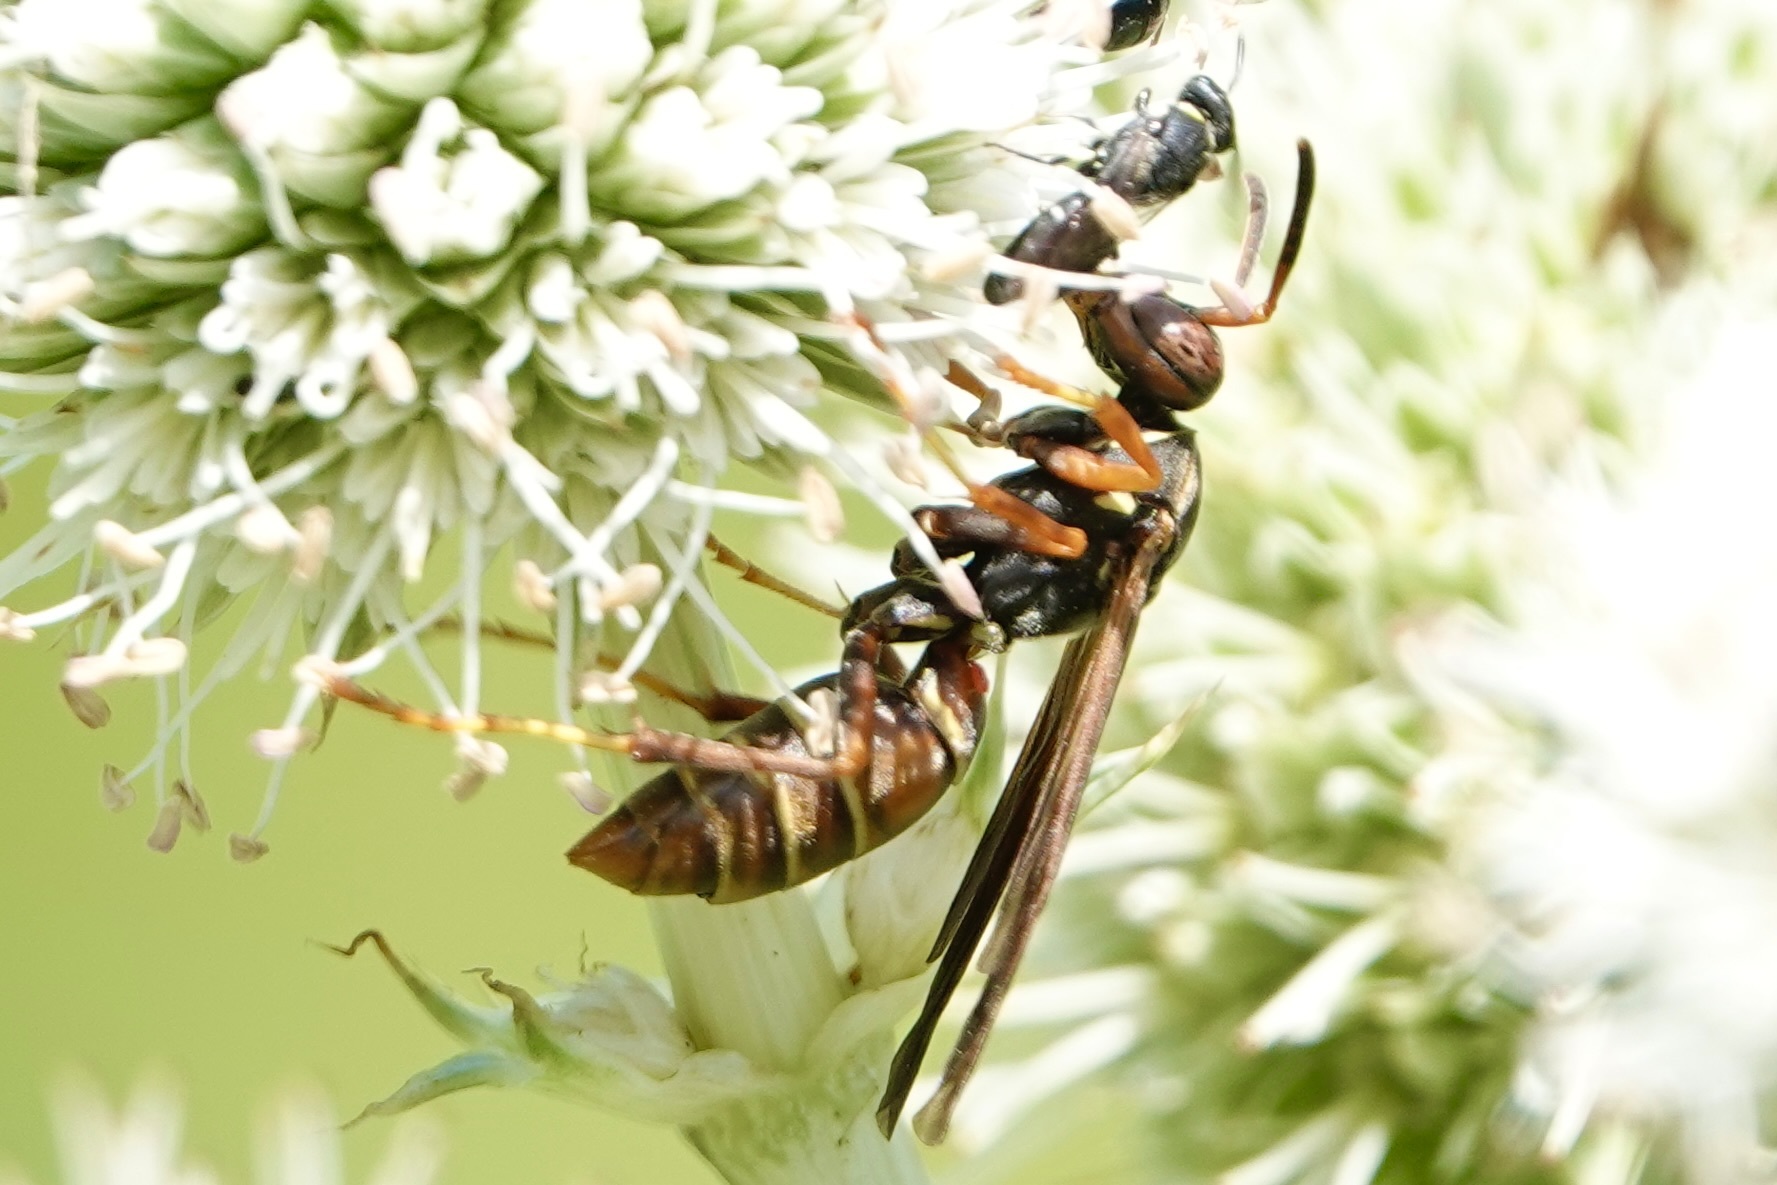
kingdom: Animalia
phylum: Arthropoda
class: Insecta
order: Hymenoptera
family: Eumenidae
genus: Polistes
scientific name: Polistes fuscatus
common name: Dark paper wasp
